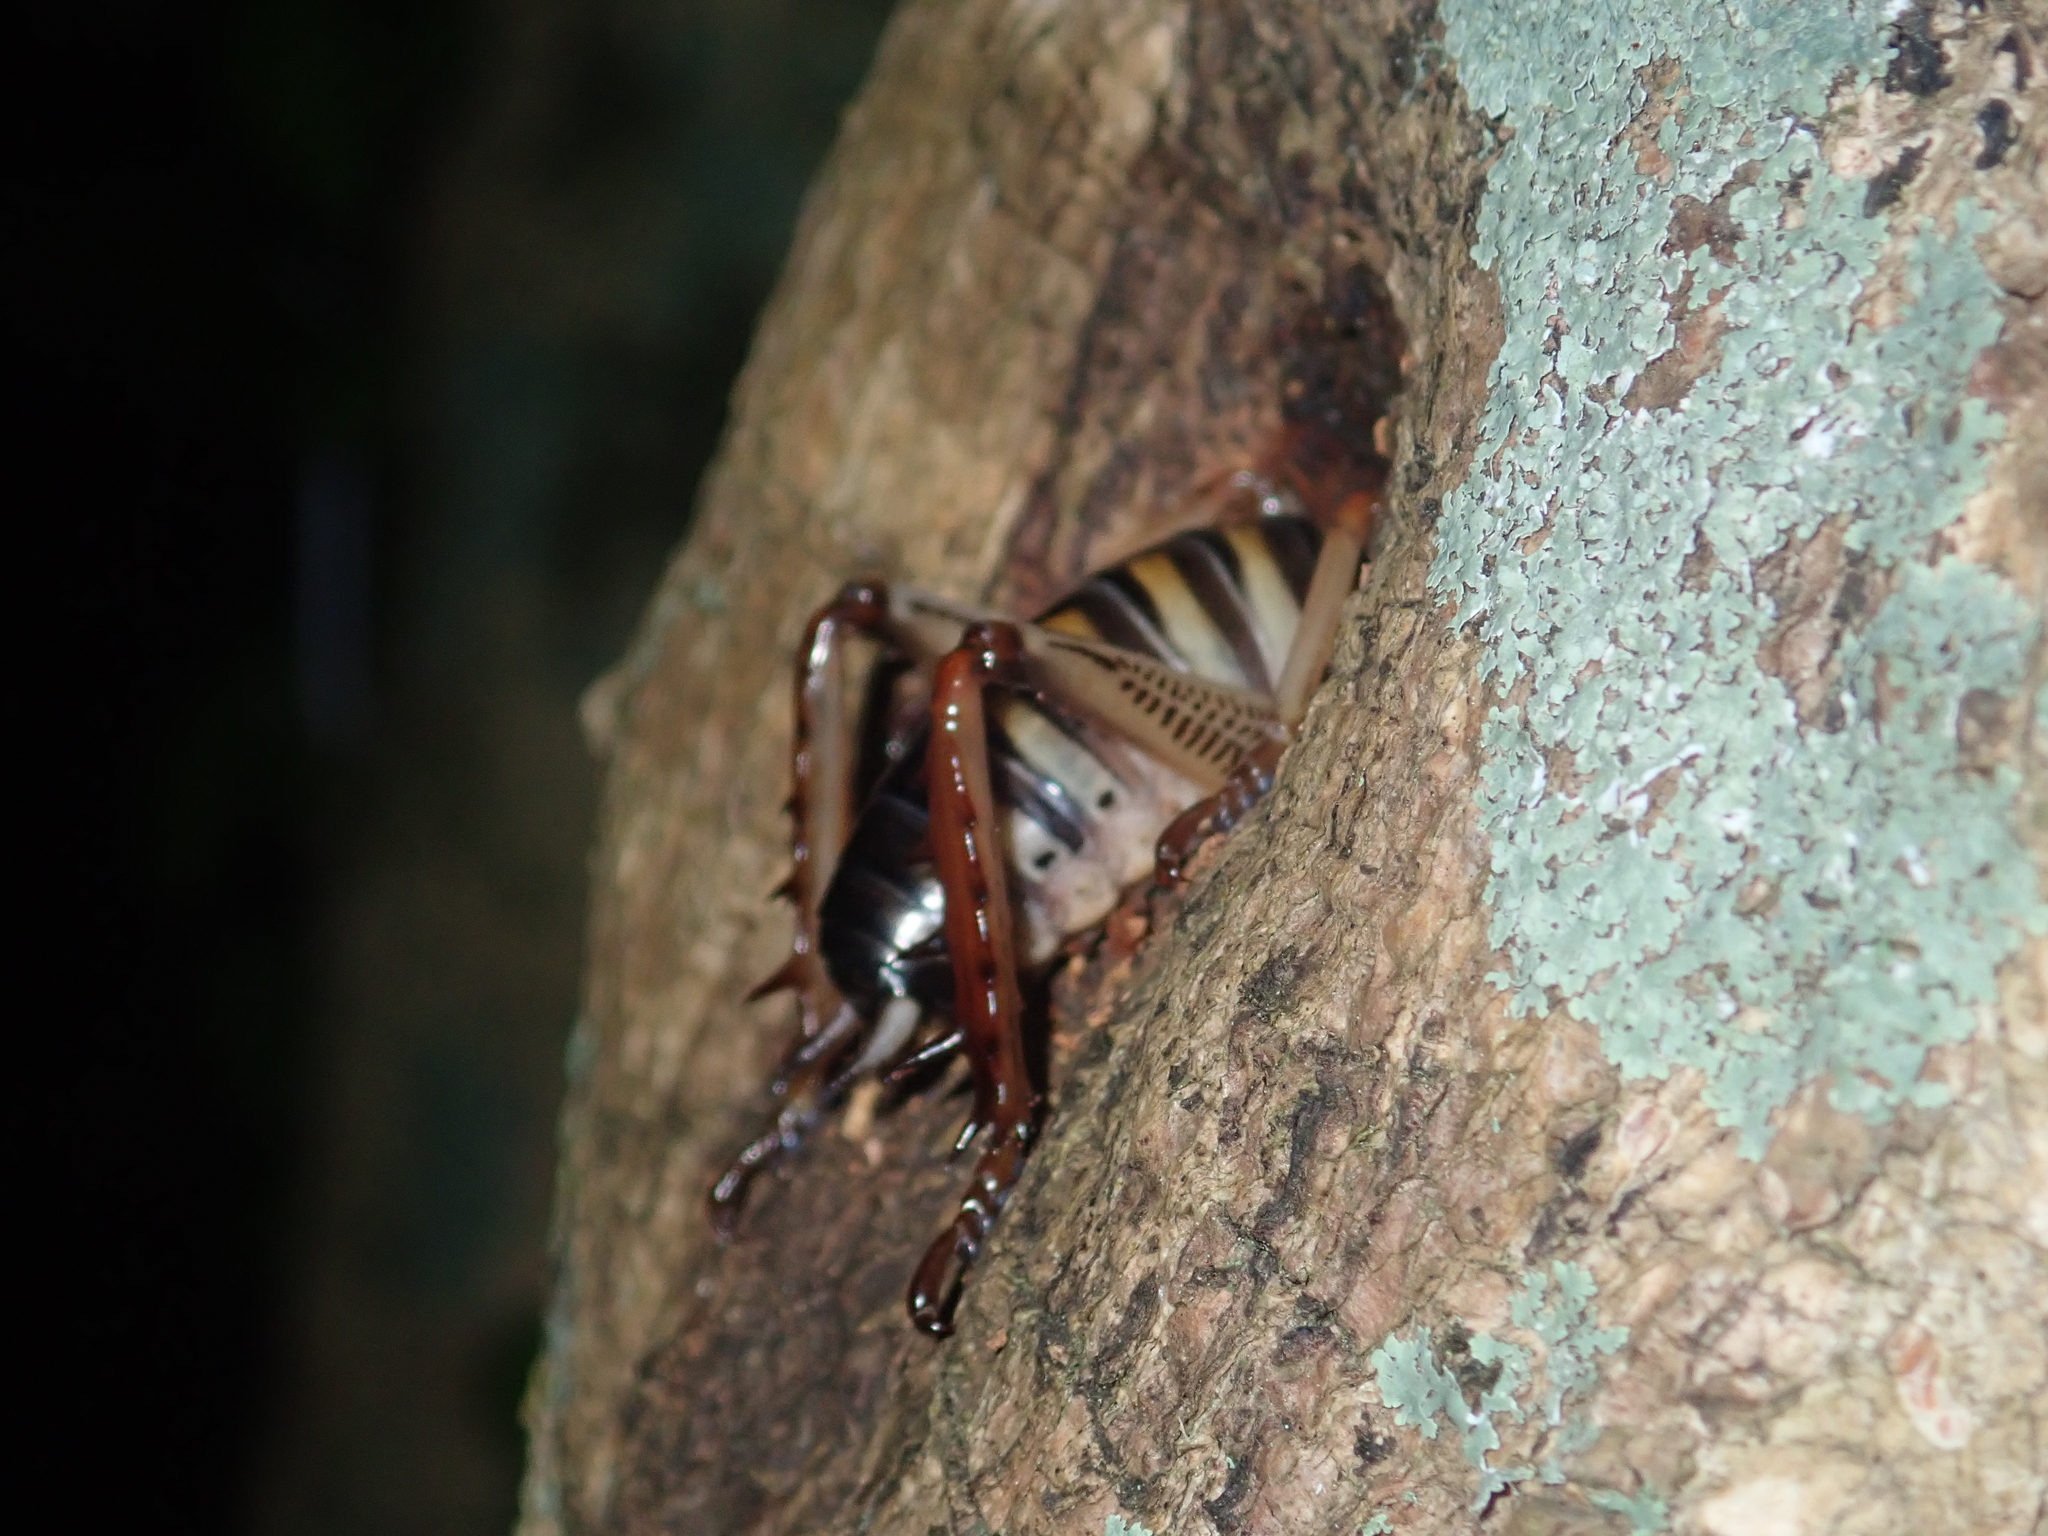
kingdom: Animalia
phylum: Arthropoda
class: Insecta
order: Orthoptera
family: Anostostomatidae
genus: Hemideina
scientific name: Hemideina crassidens
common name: Wellington tree weta
